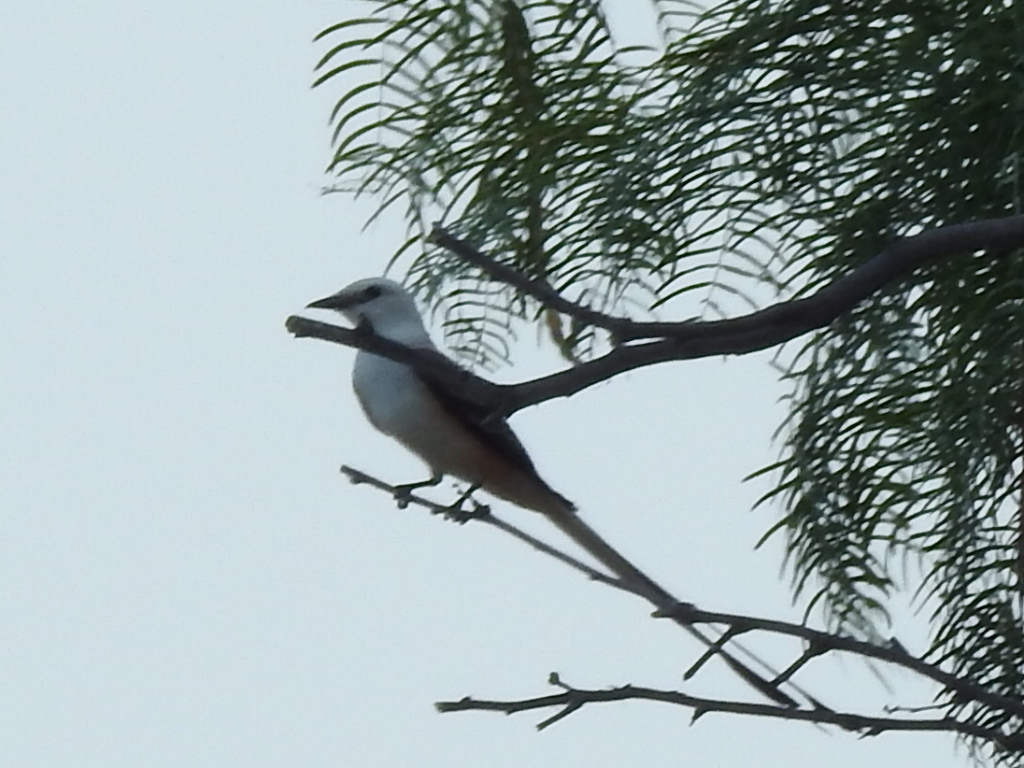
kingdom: Animalia
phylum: Chordata
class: Aves
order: Passeriformes
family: Tyrannidae
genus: Tyrannus
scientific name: Tyrannus forficatus
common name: Scissor-tailed flycatcher
